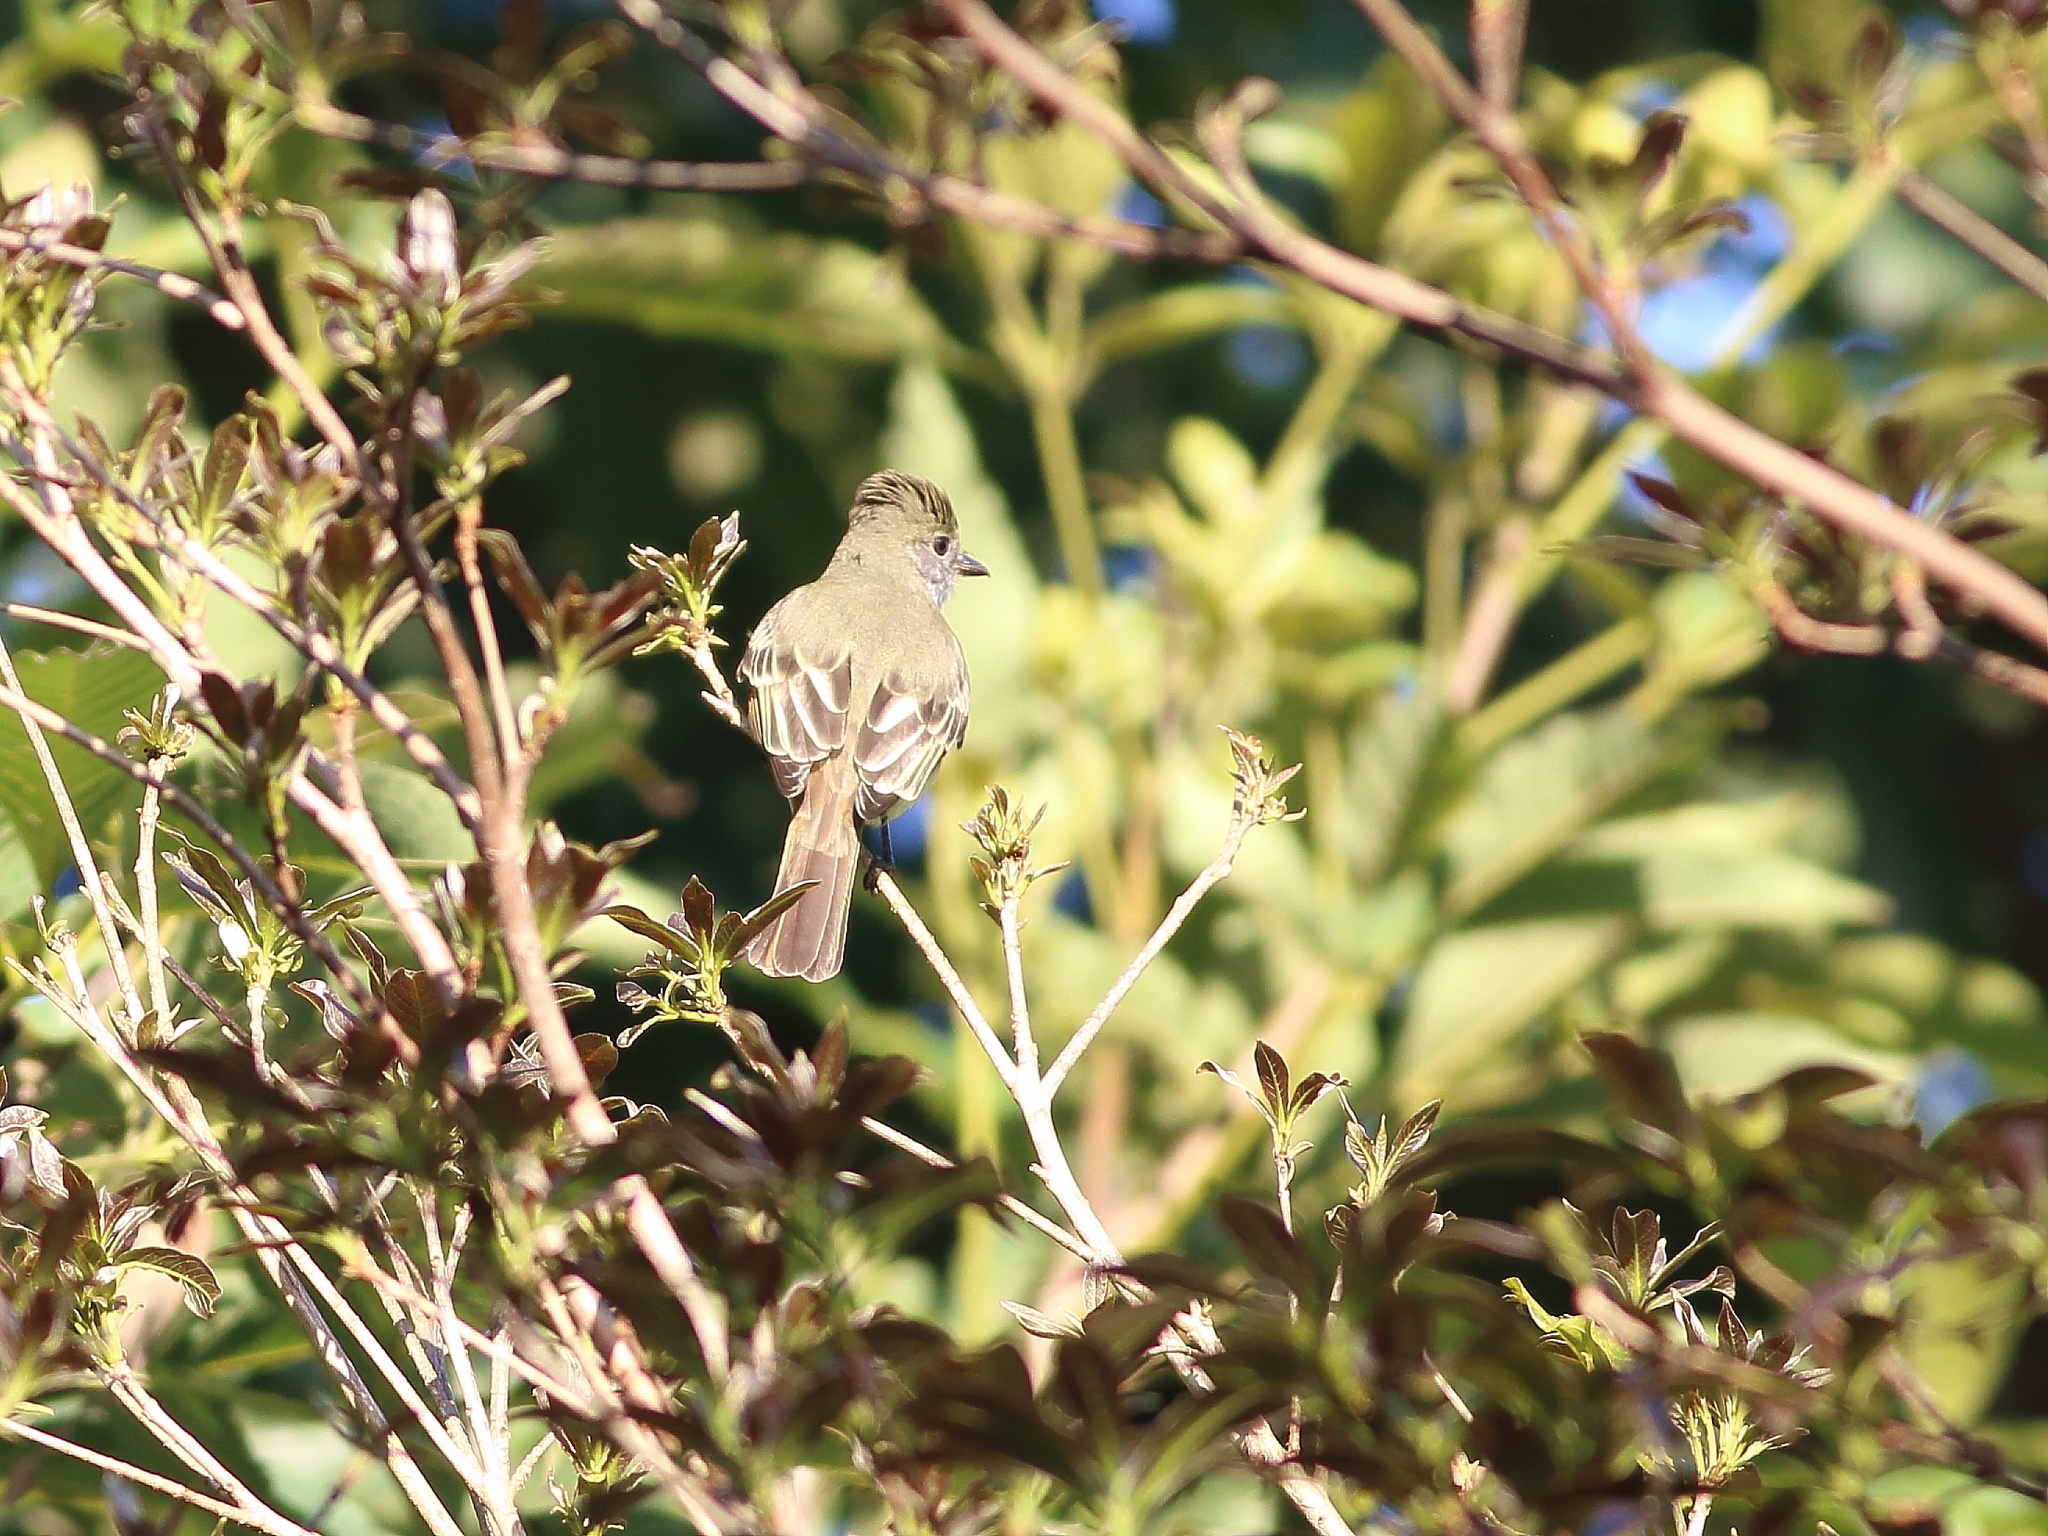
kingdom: Animalia
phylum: Chordata
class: Aves
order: Passeriformes
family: Tyrannidae
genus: Myiarchus
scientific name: Myiarchus crinitus
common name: Great crested flycatcher
